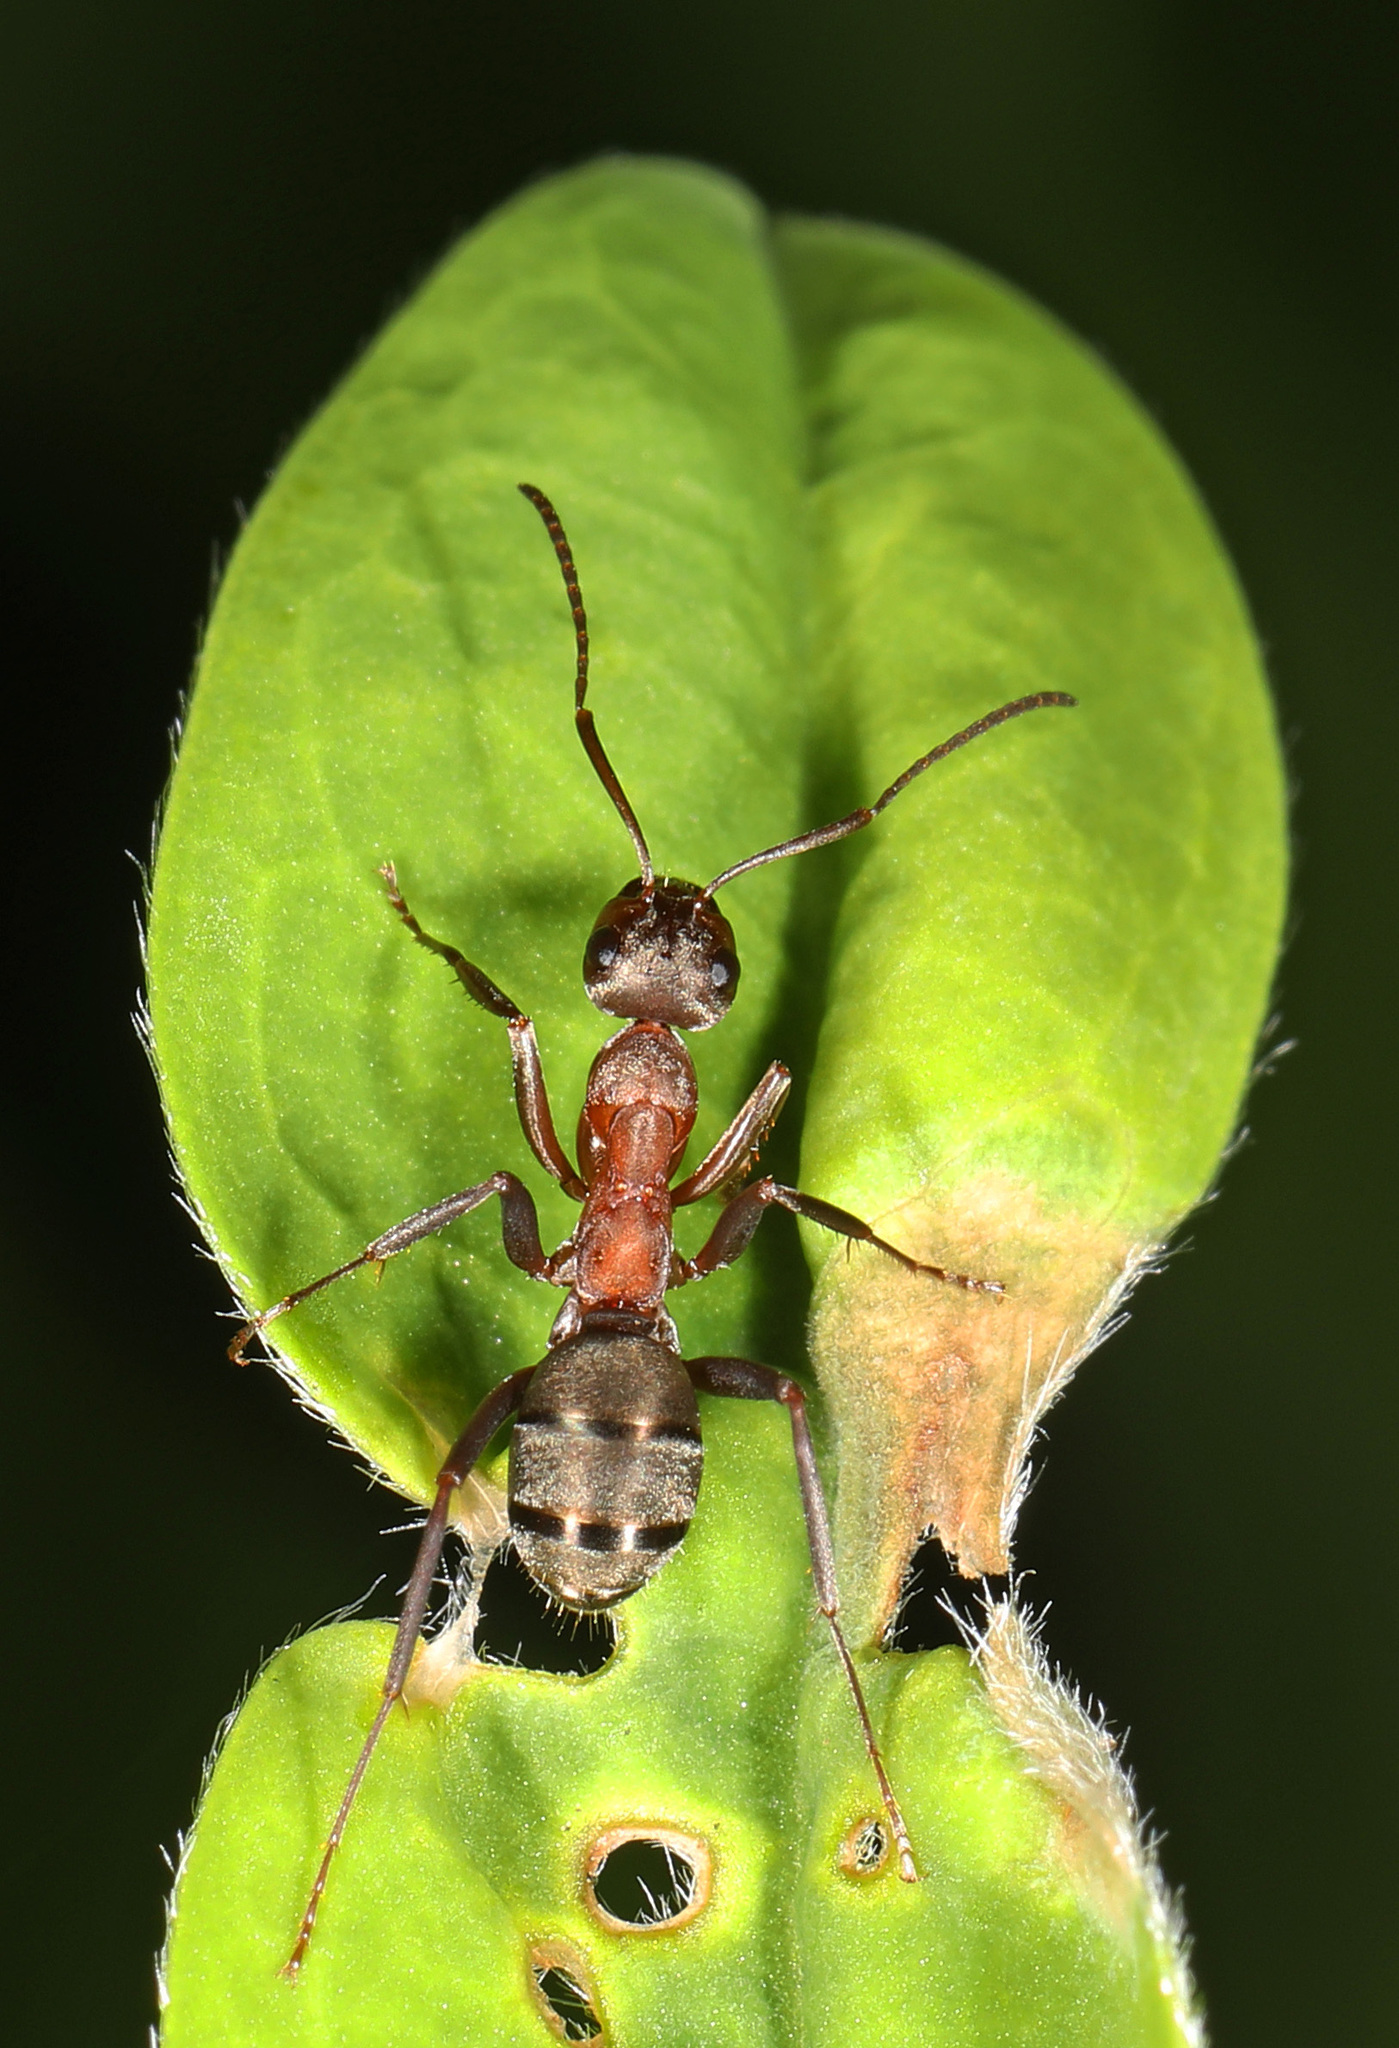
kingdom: Animalia
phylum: Arthropoda
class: Insecta
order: Hymenoptera
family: Formicidae
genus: Formica
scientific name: Formica moki
